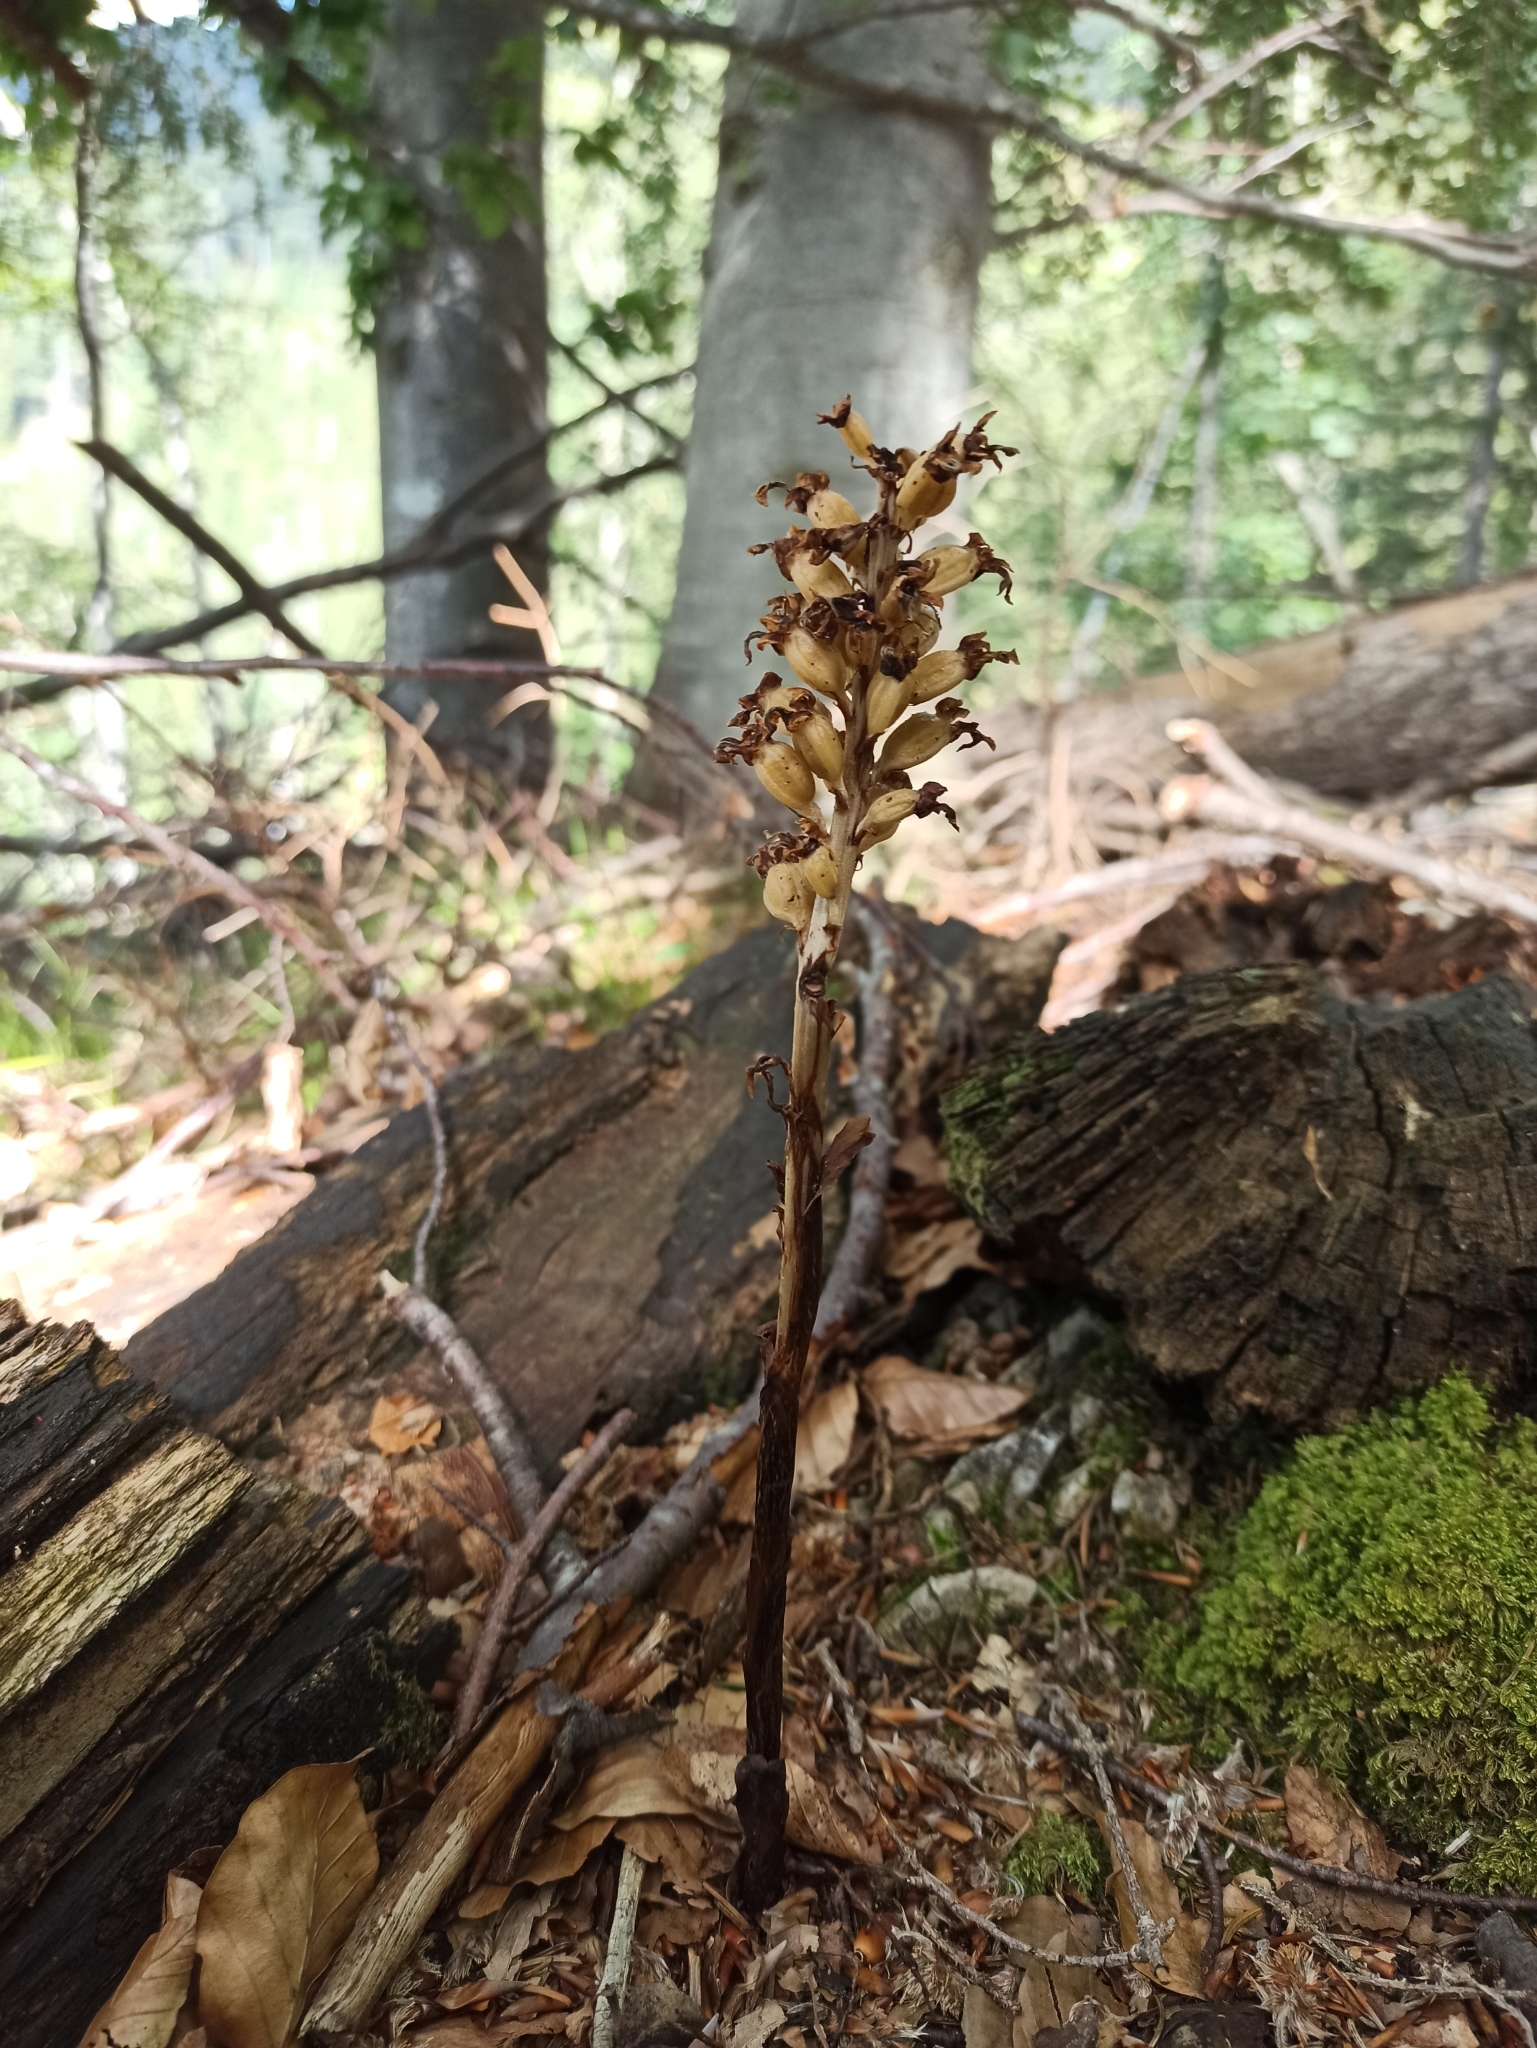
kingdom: Plantae
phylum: Tracheophyta
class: Liliopsida
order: Asparagales
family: Orchidaceae
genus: Neottia
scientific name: Neottia nidus-avis
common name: Bird's-nest orchid
